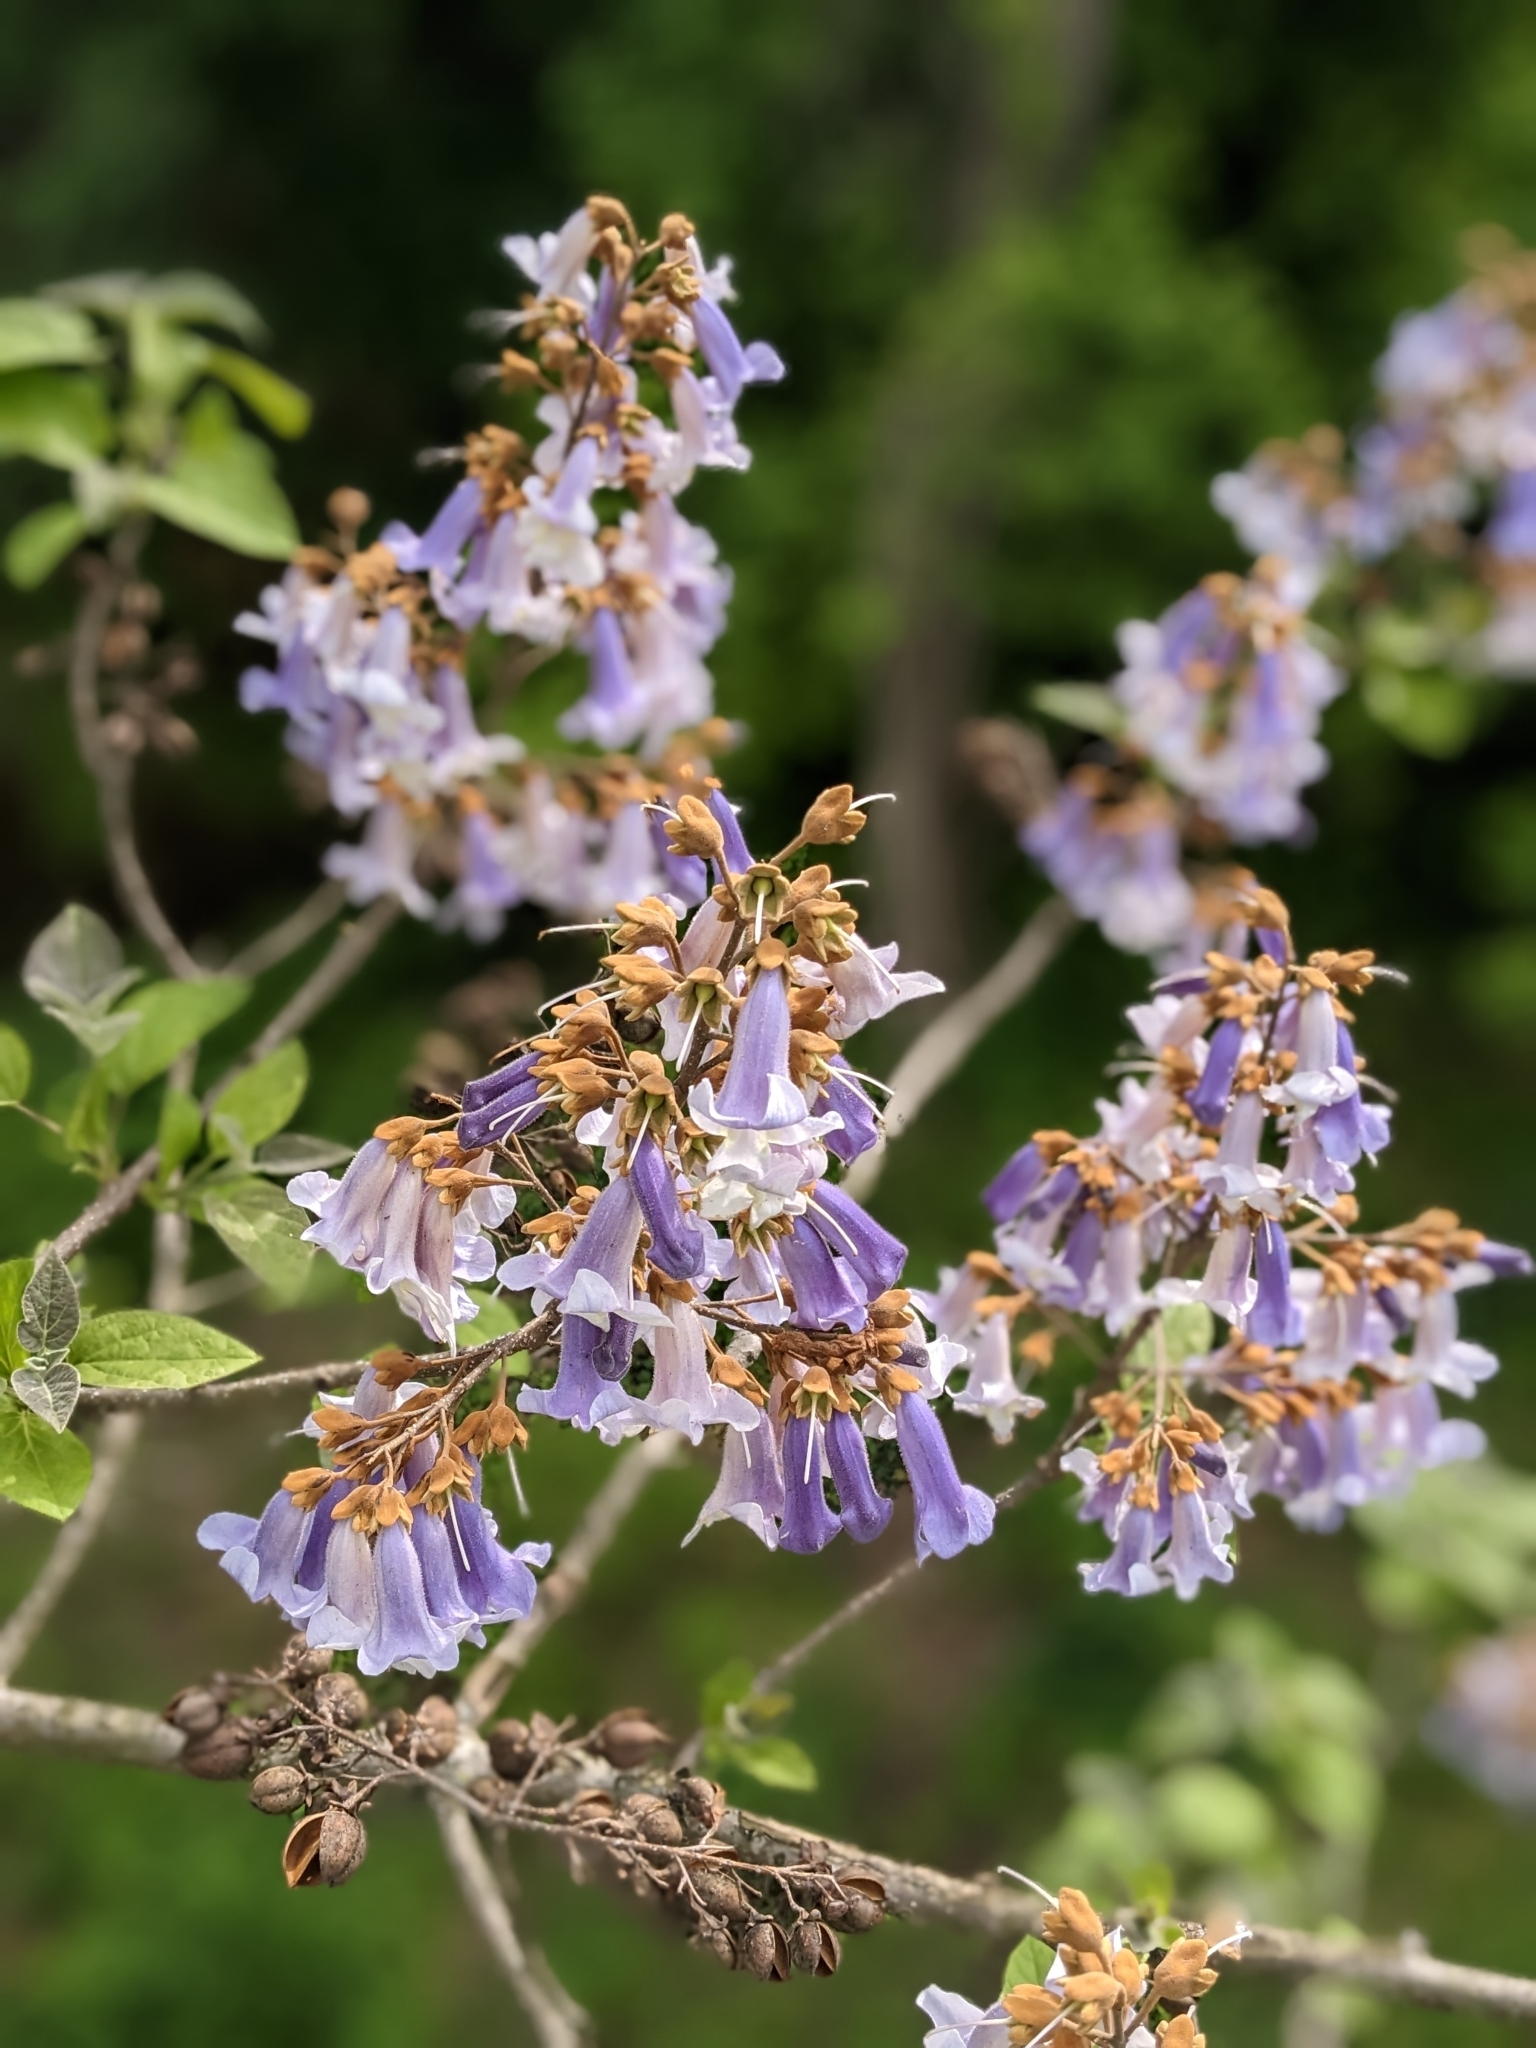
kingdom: Plantae
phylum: Tracheophyta
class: Magnoliopsida
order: Lamiales
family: Paulowniaceae
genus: Paulownia
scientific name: Paulownia tomentosa
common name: Foxglove-tree
